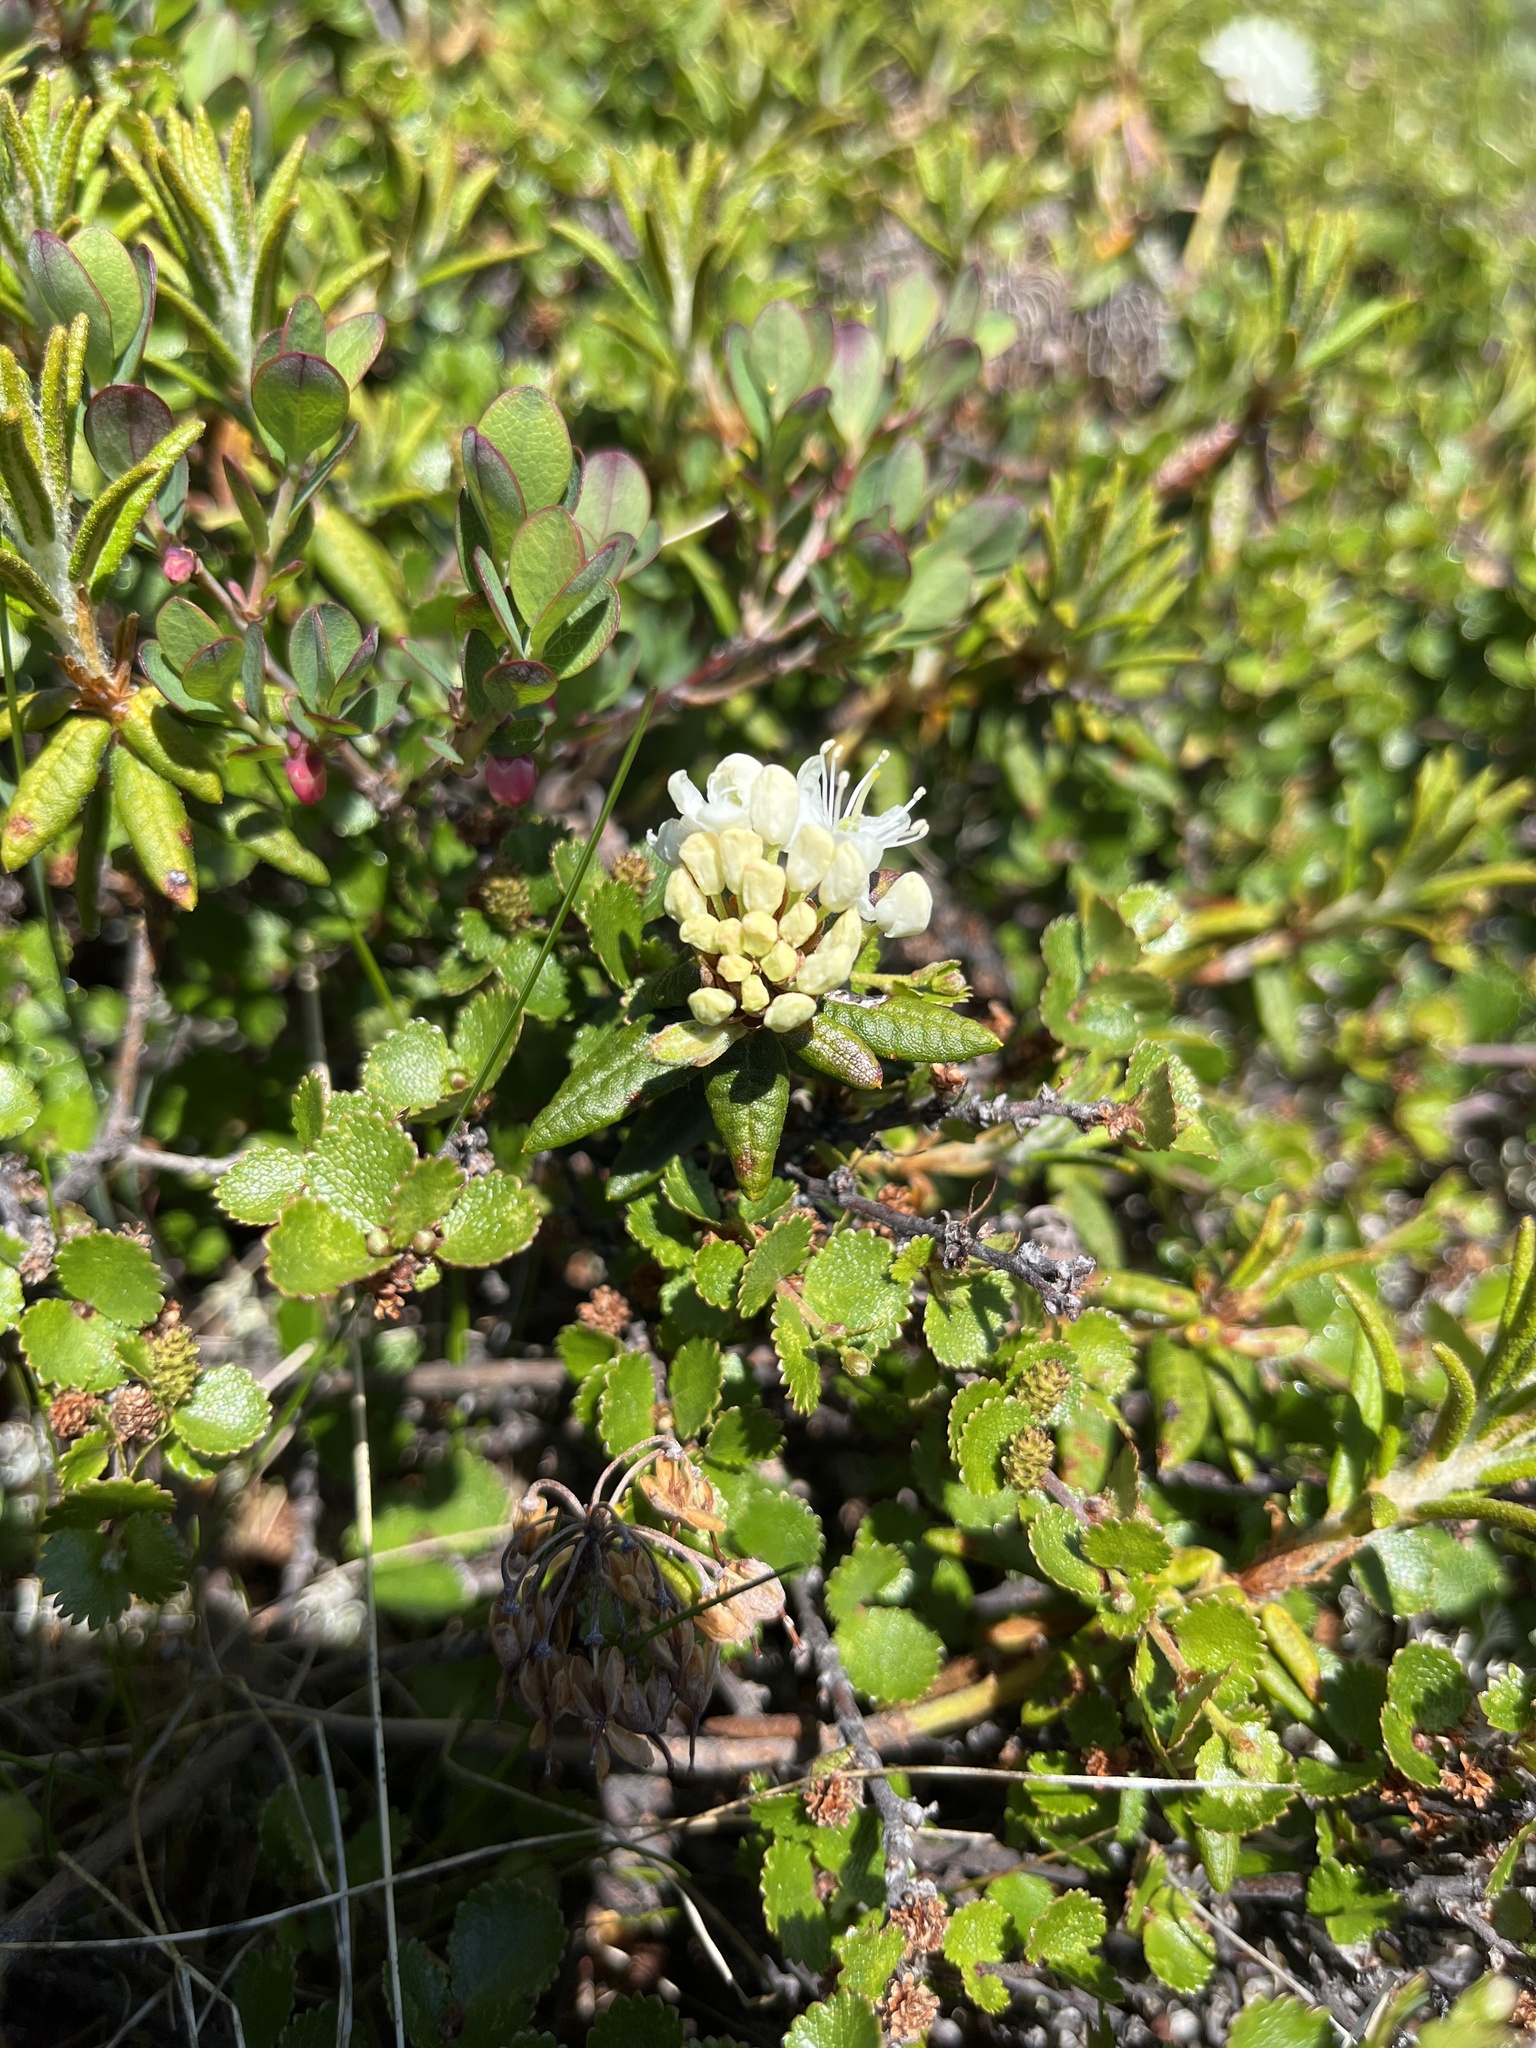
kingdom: Plantae
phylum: Tracheophyta
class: Magnoliopsida
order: Ericales
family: Ericaceae
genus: Rhododendron
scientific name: Rhododendron groenlandicum
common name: Bog labrador tea
